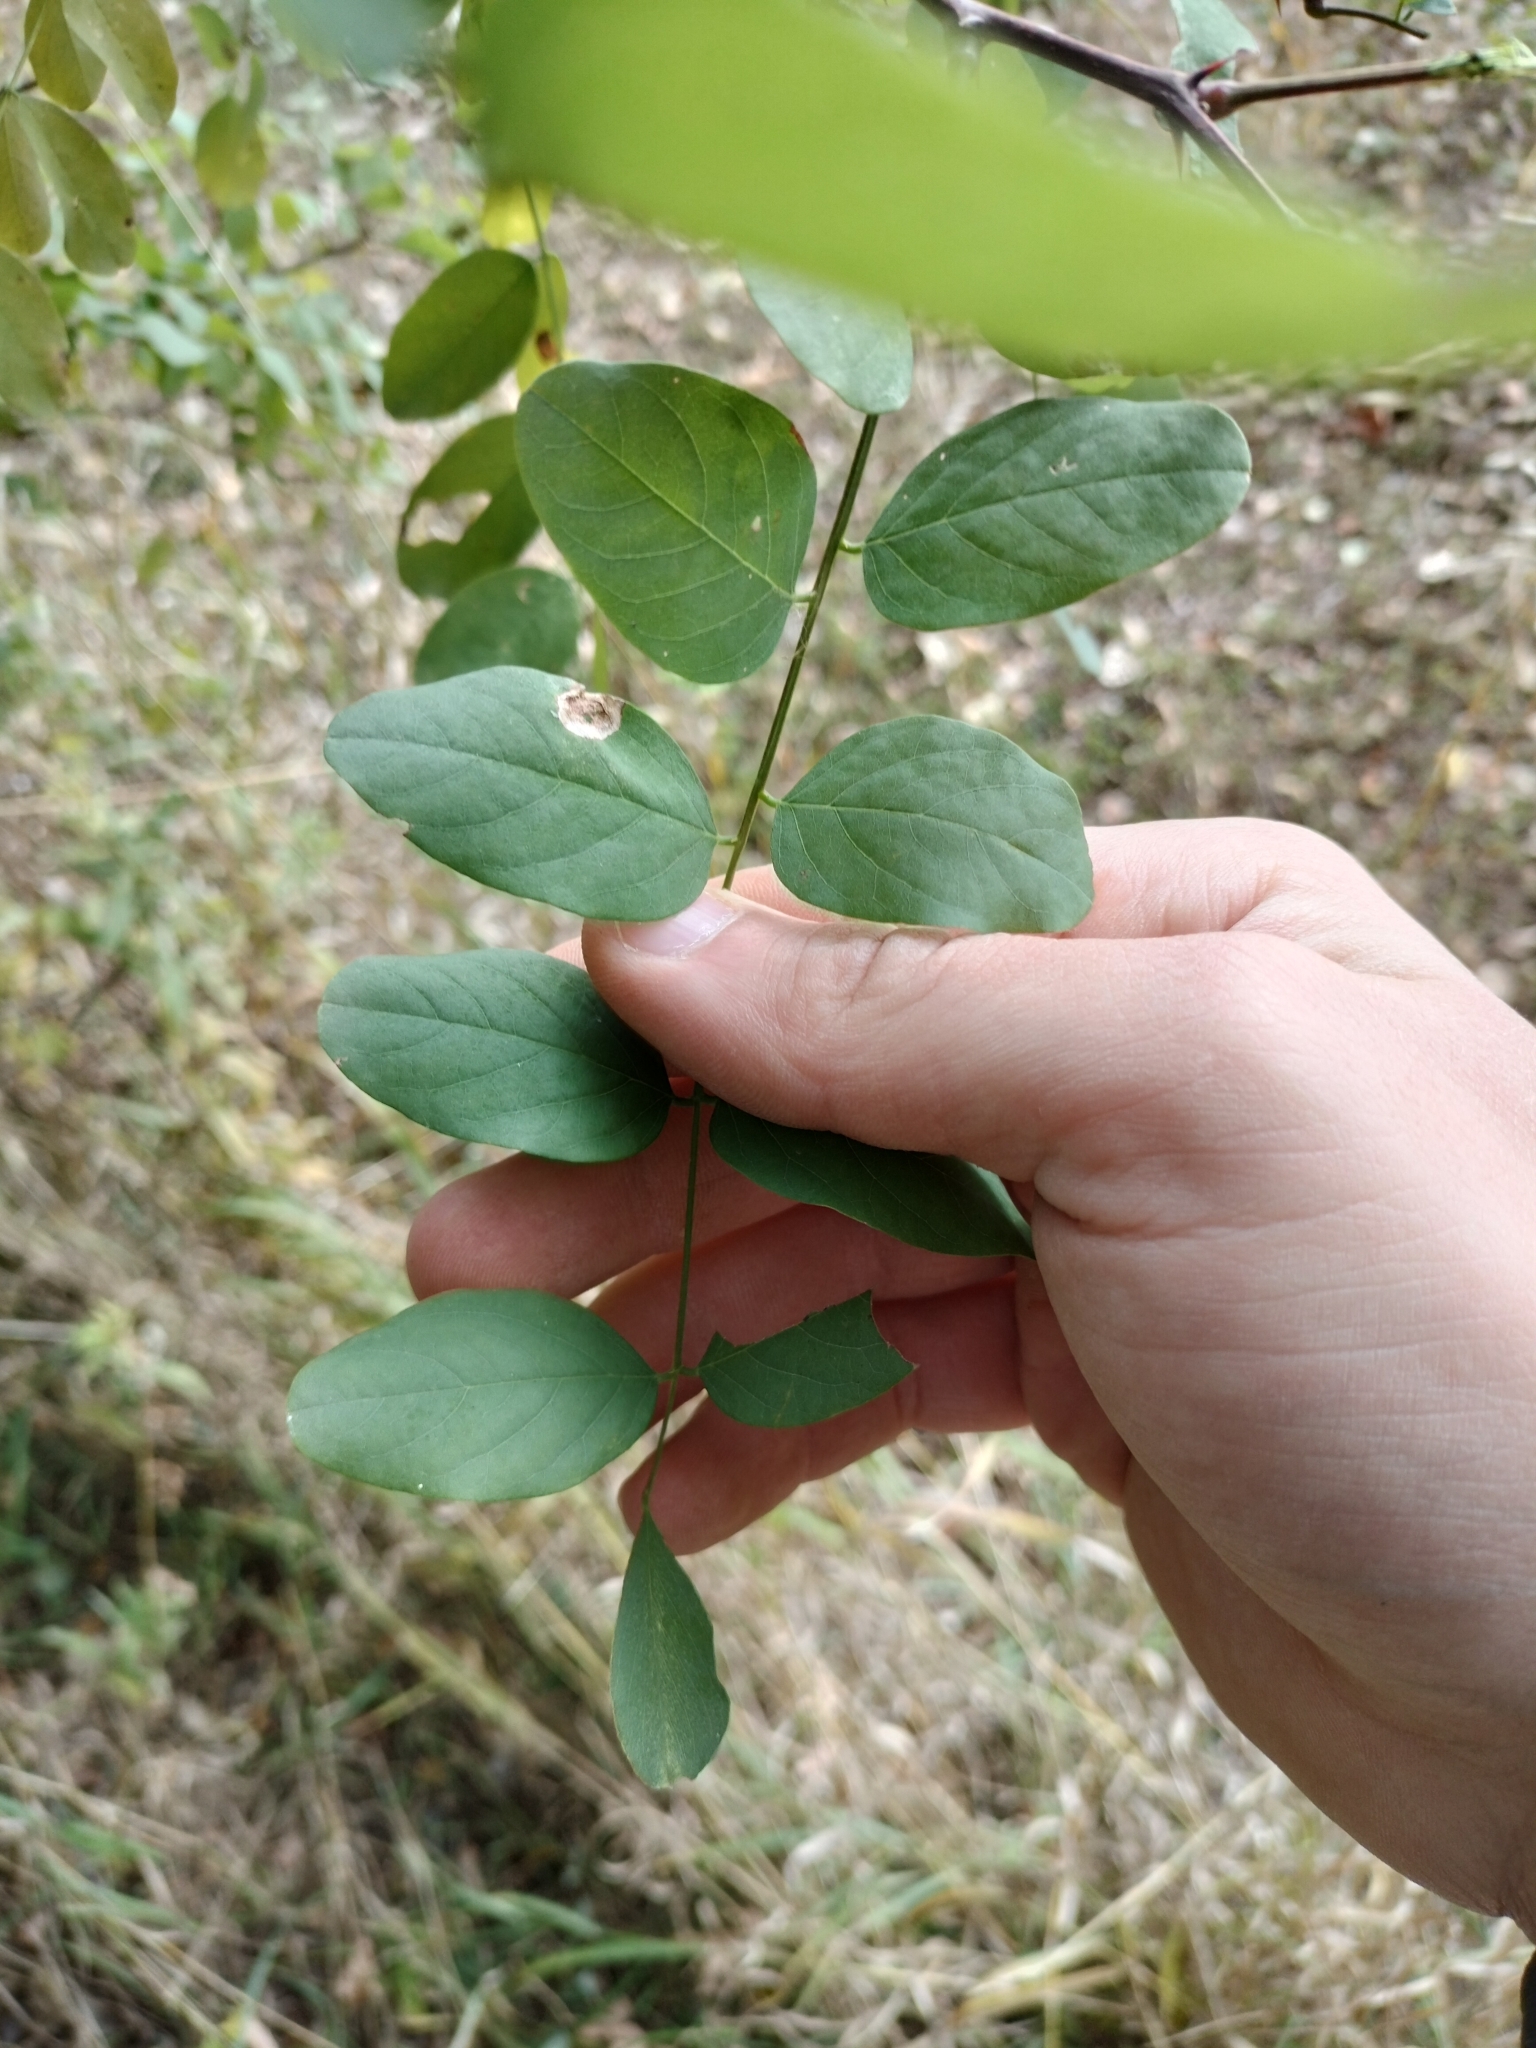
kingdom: Plantae
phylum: Tracheophyta
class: Magnoliopsida
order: Fabales
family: Fabaceae
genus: Robinia
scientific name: Robinia pseudoacacia
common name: Black locust
